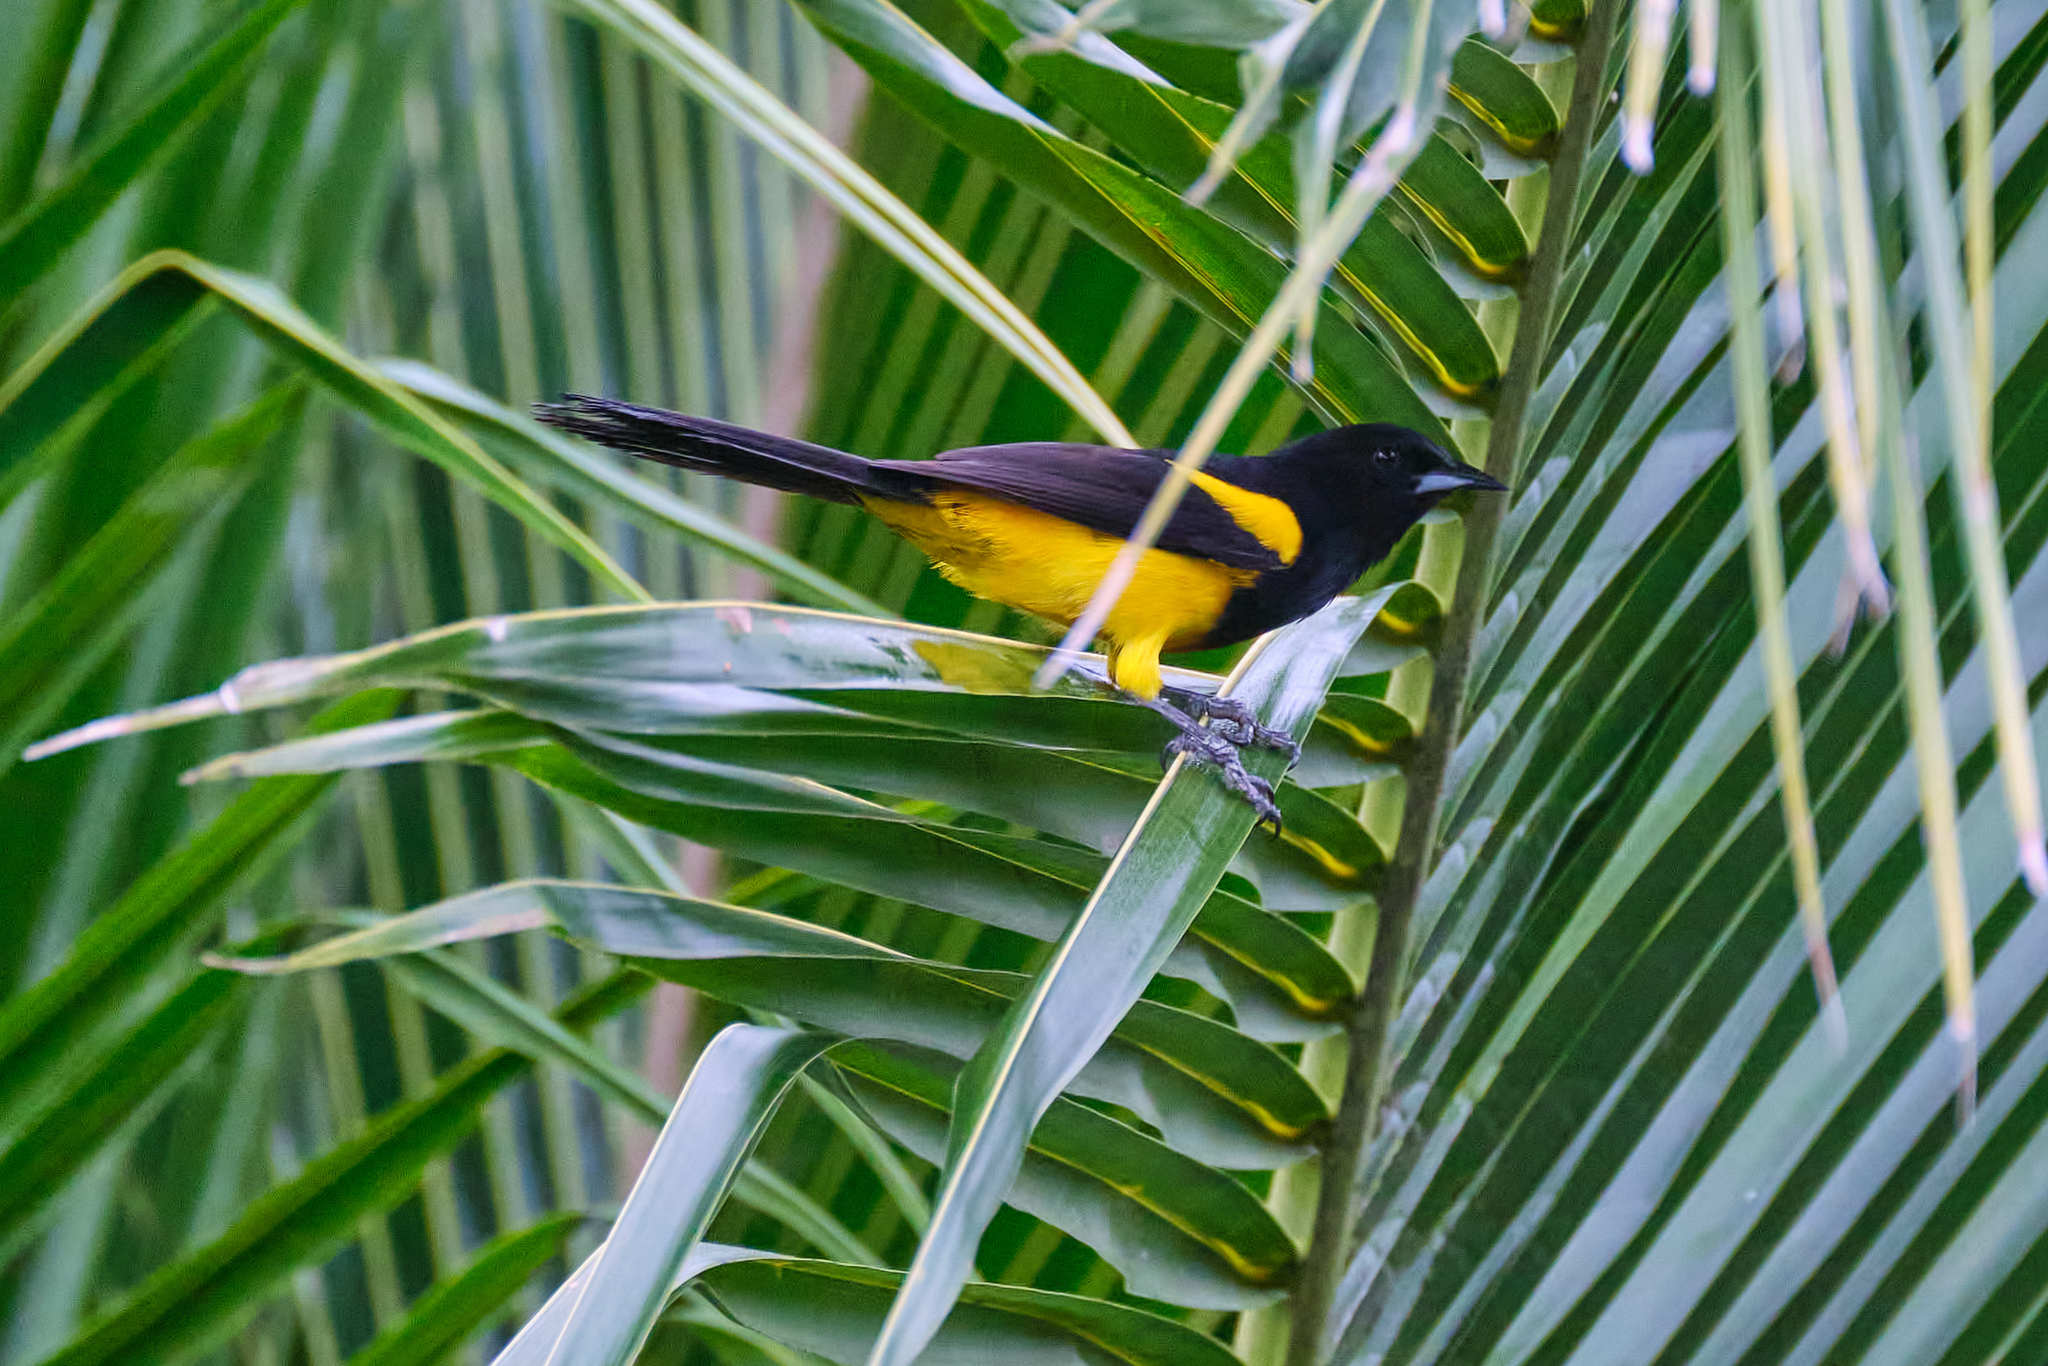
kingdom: Animalia
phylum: Chordata
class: Aves
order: Passeriformes
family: Icteridae
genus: Icterus
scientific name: Icterus prosthemelas
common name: Black-cowled oriole
